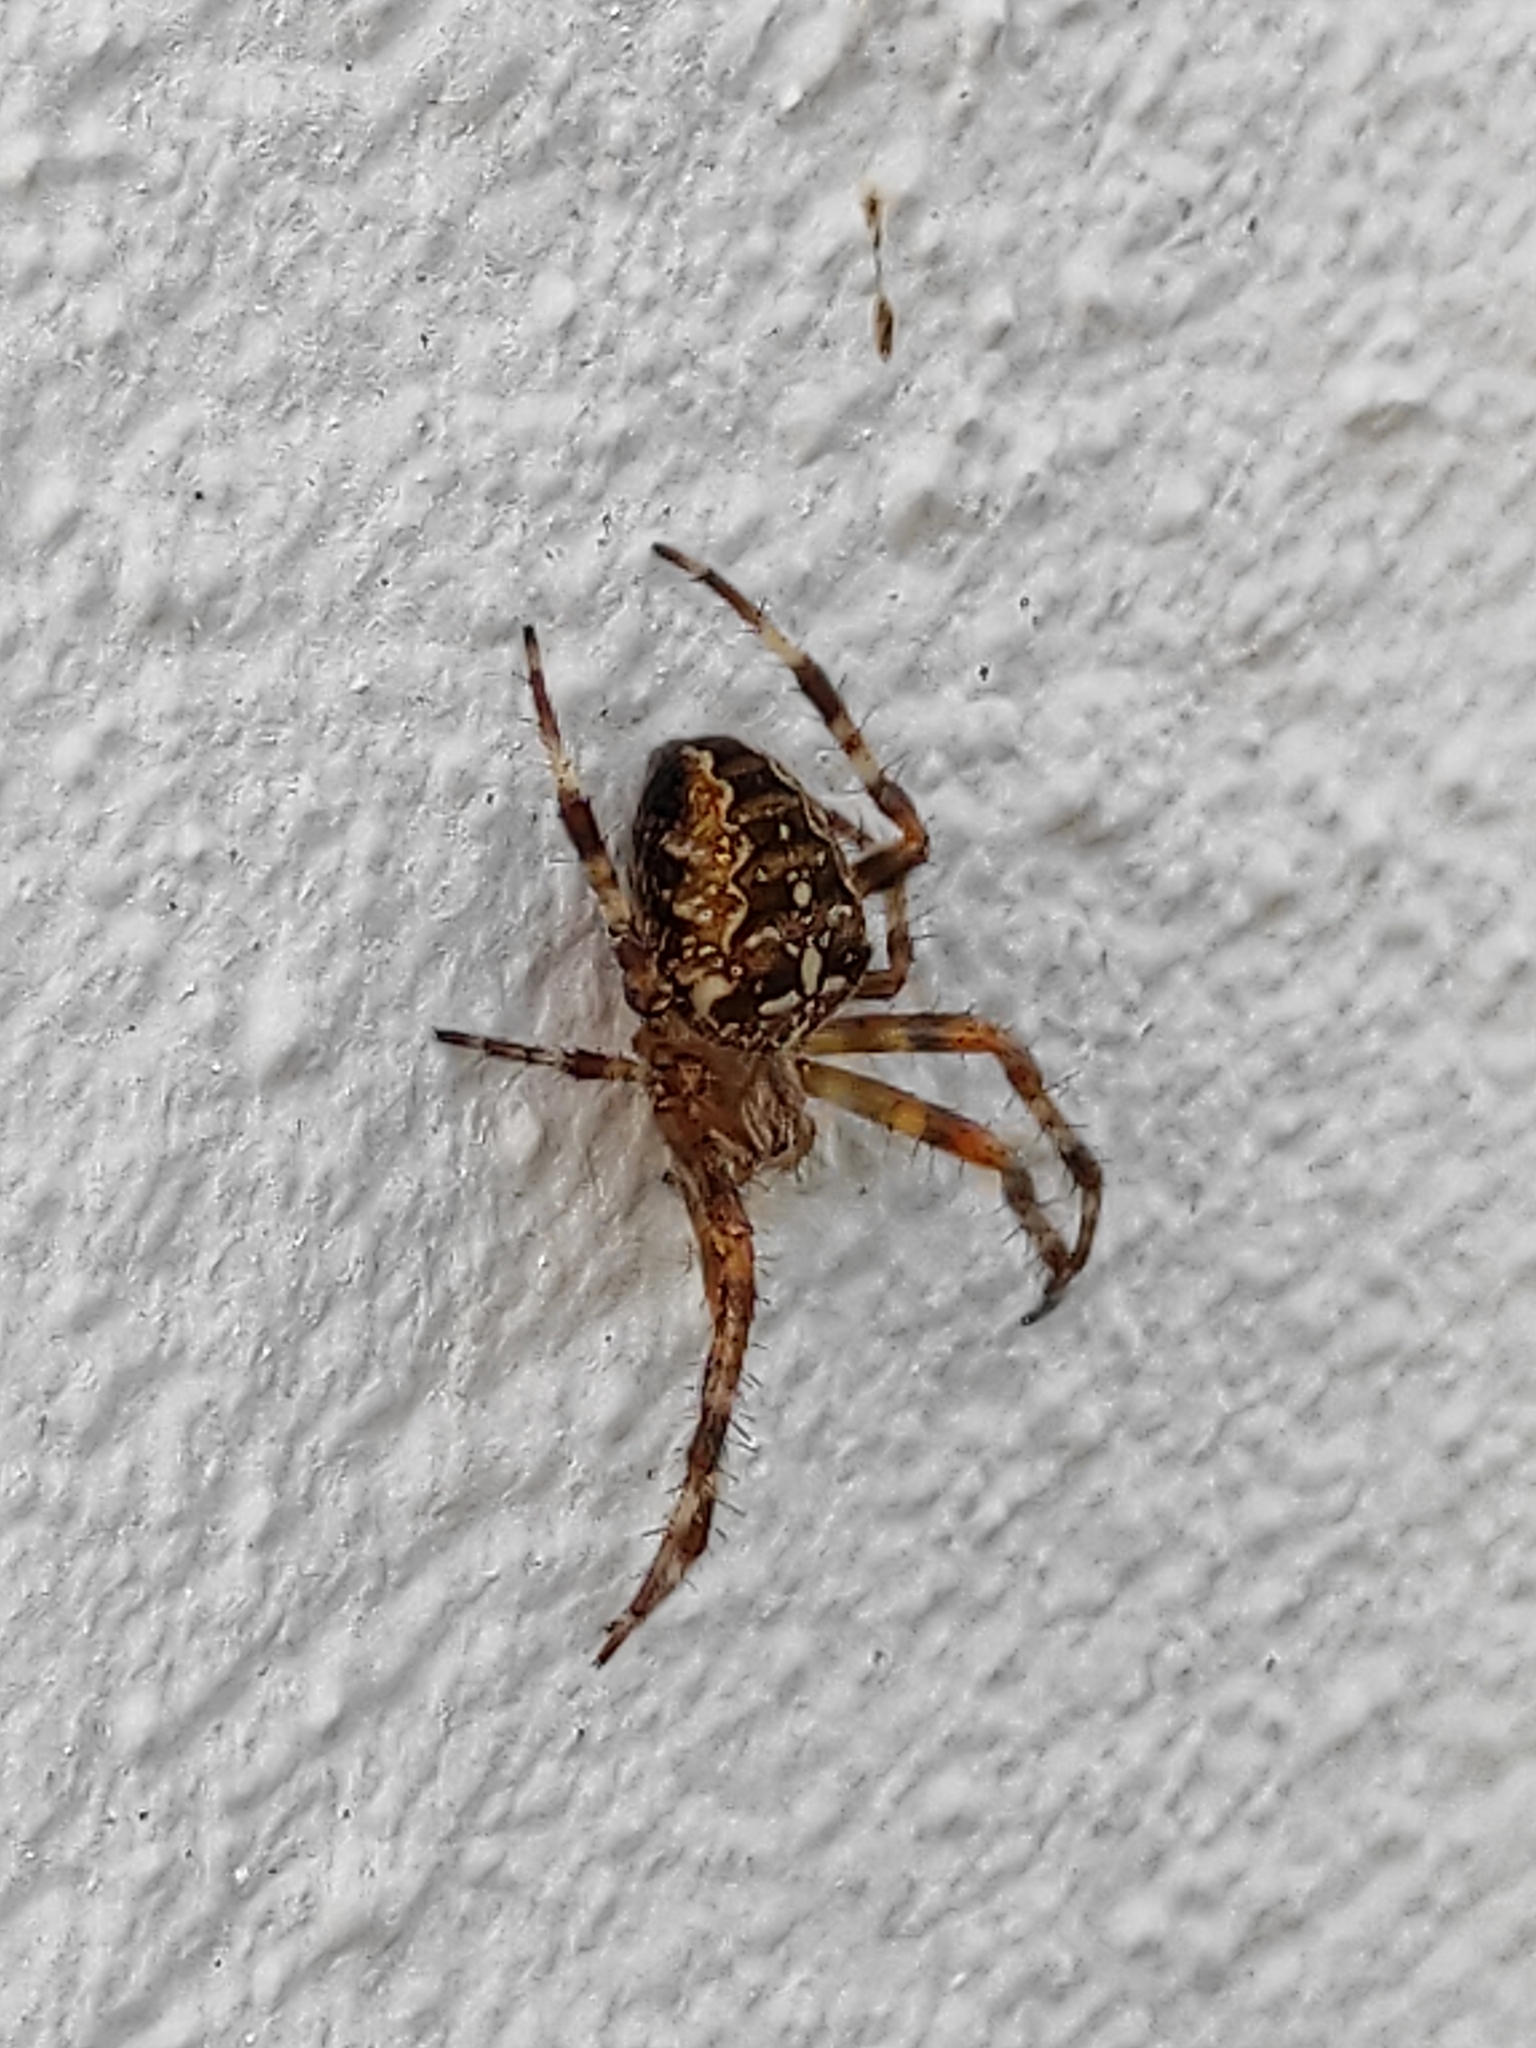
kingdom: Animalia
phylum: Arthropoda
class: Arachnida
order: Araneae
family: Araneidae
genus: Araneus
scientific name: Araneus diadematus
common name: Cross orbweaver
